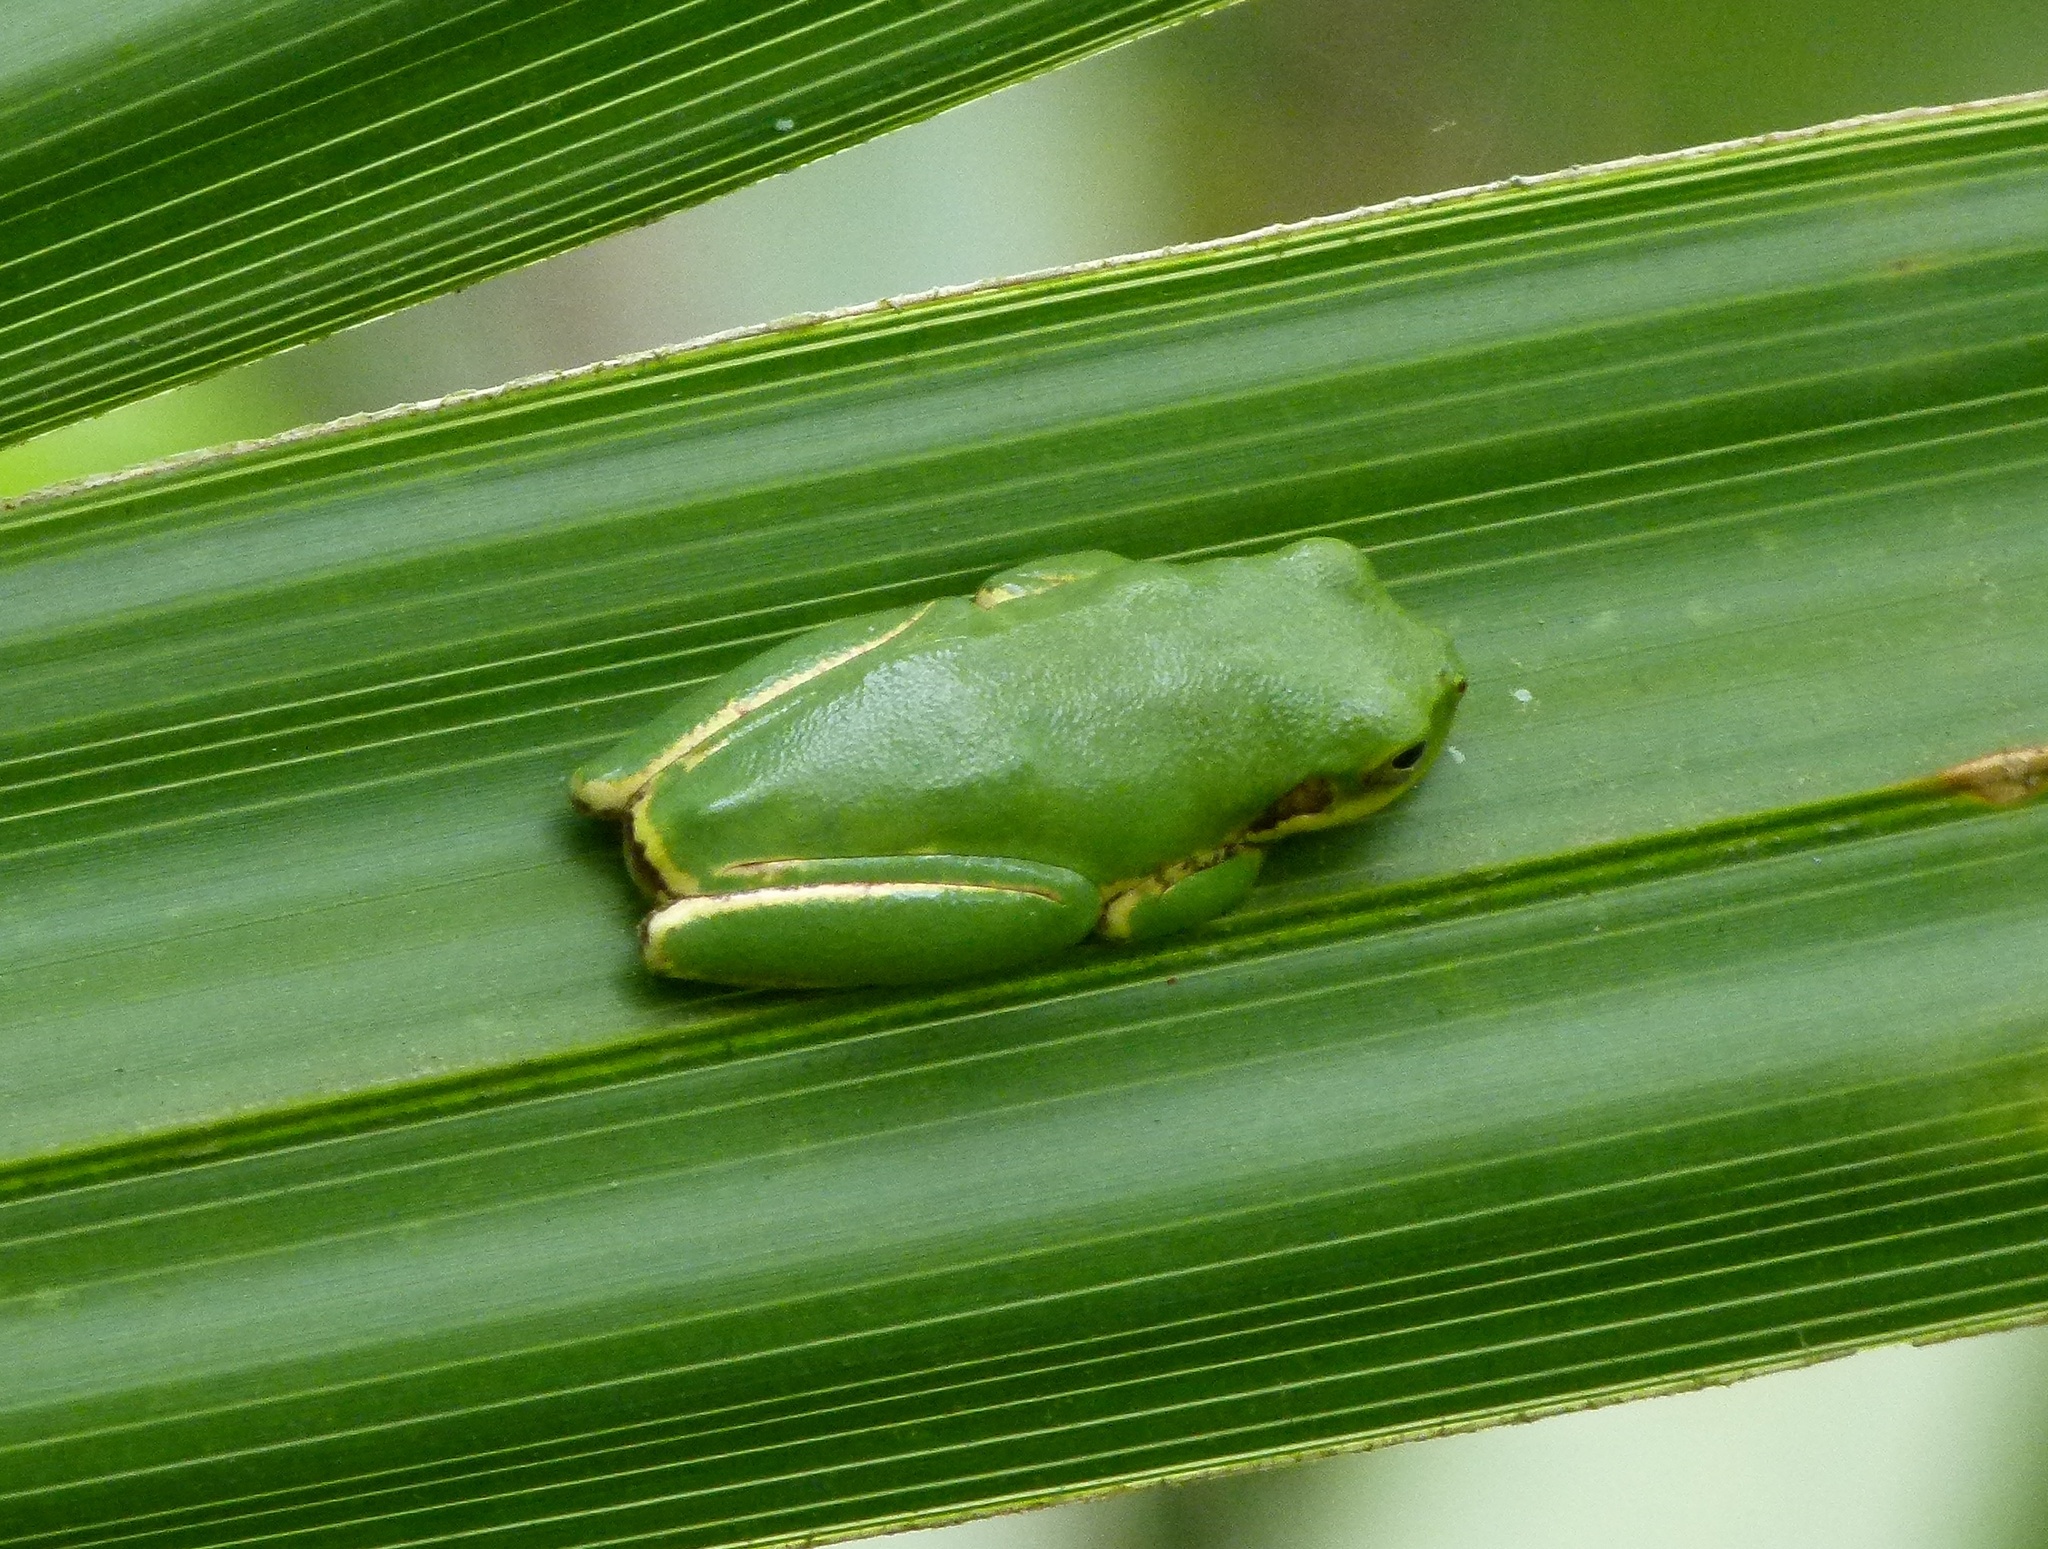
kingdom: Animalia
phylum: Chordata
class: Amphibia
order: Anura
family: Hylidae
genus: Dryophytes
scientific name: Dryophytes squirellus
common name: Squirrel treefrog
